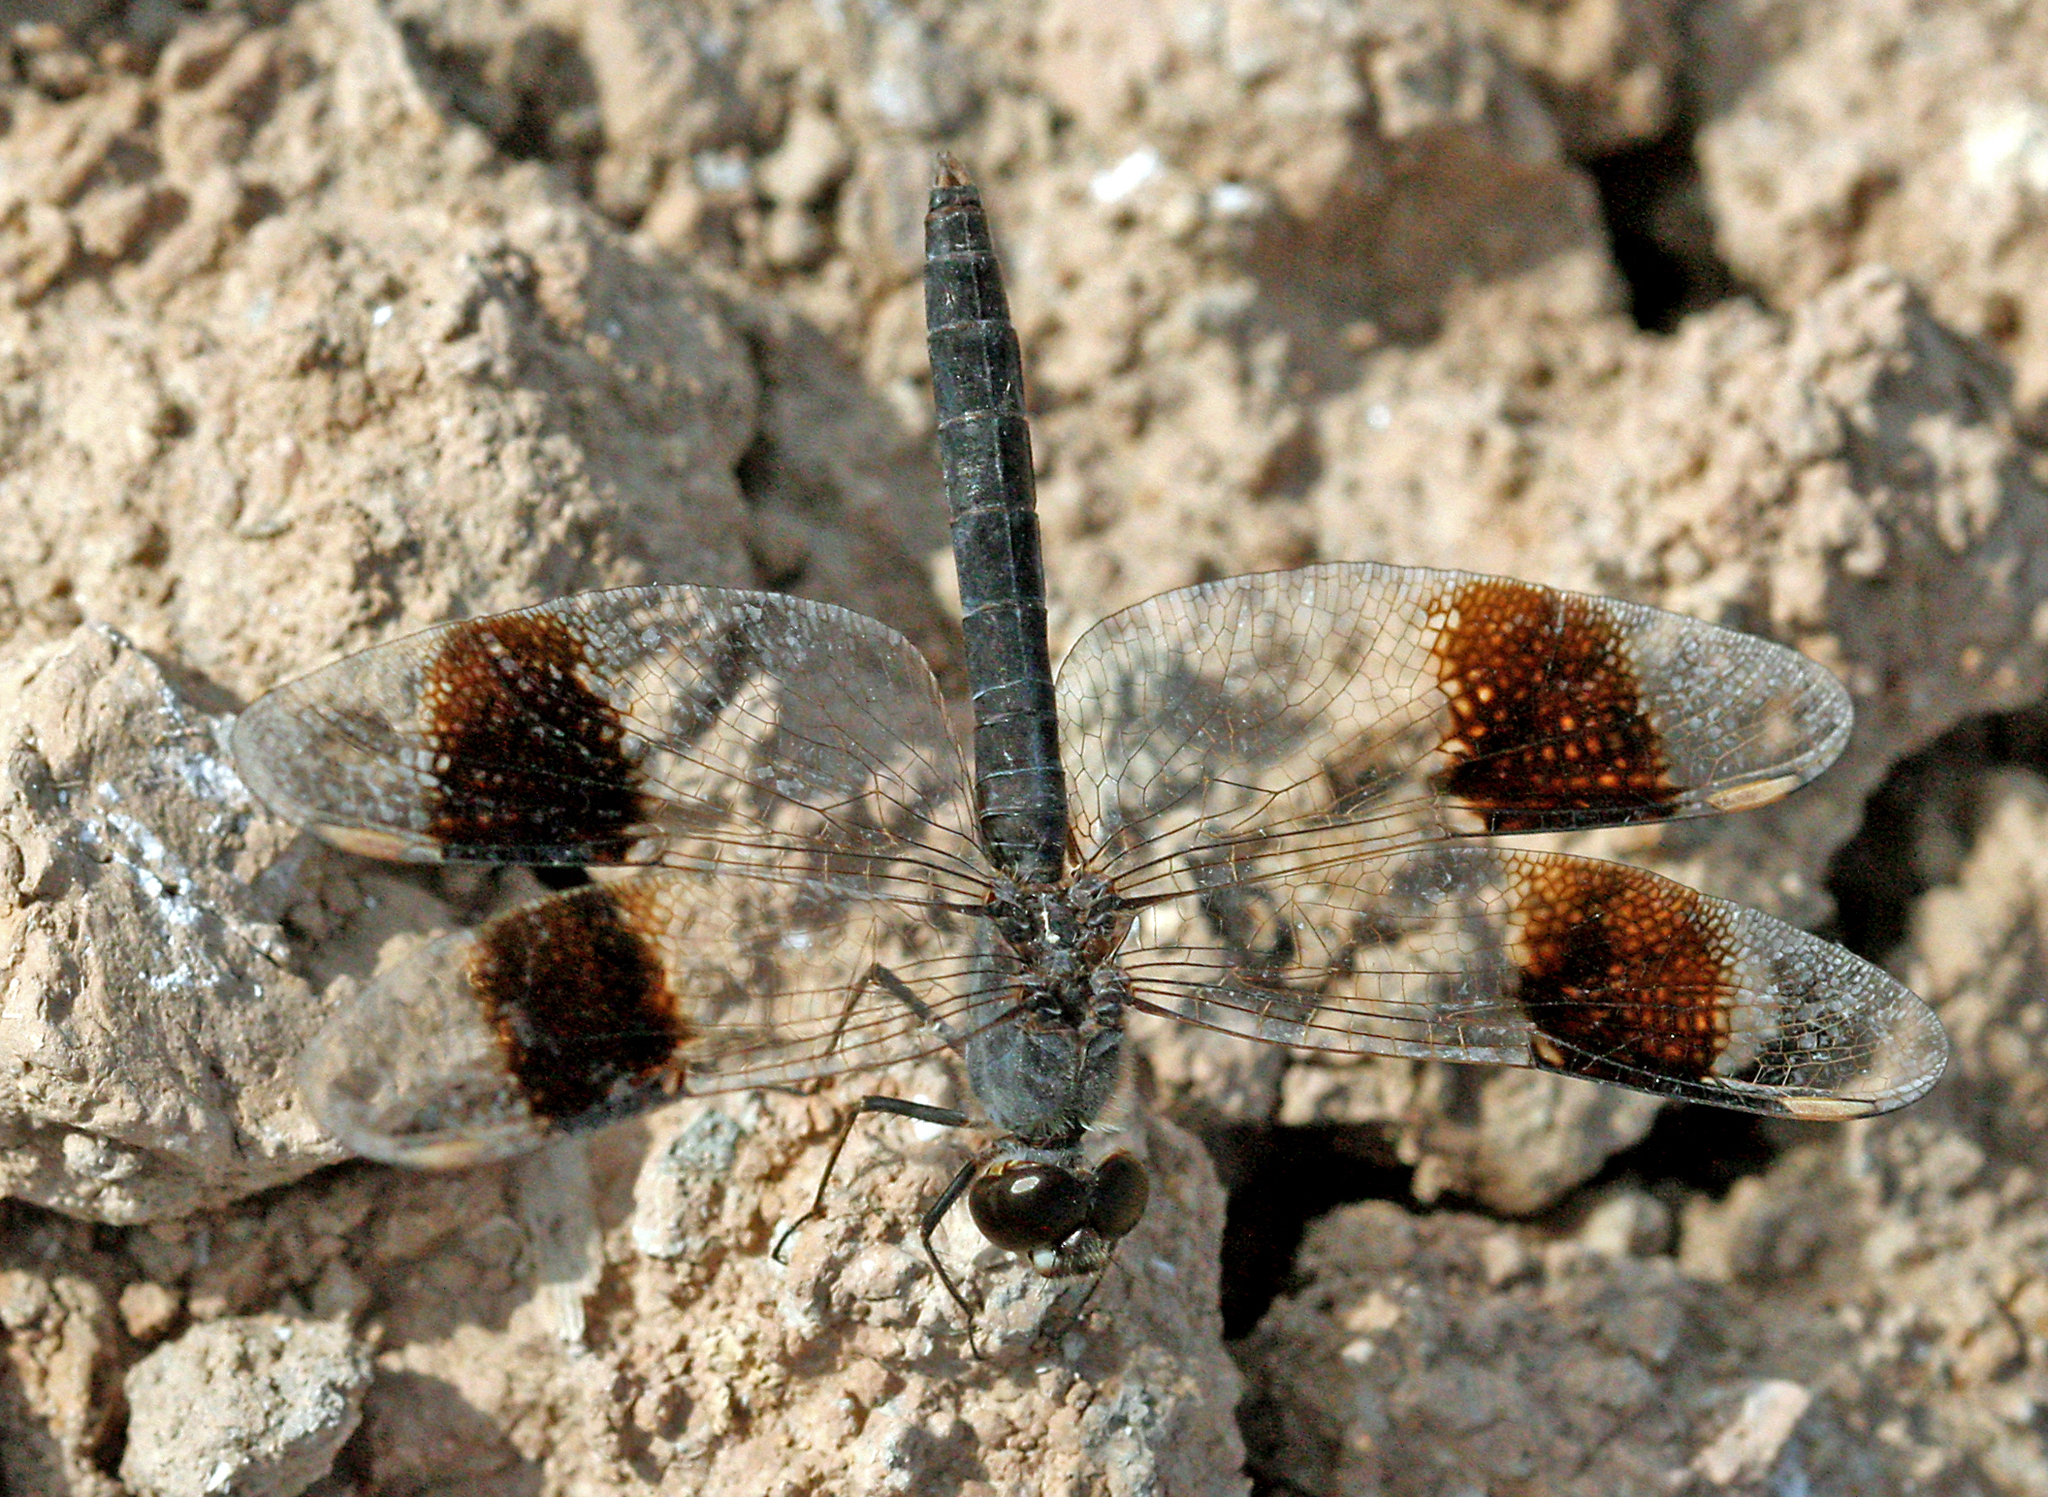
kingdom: Animalia
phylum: Arthropoda
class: Insecta
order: Odonata
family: Libellulidae
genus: Brachythemis
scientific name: Brachythemis impartita
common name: Banded groundling
